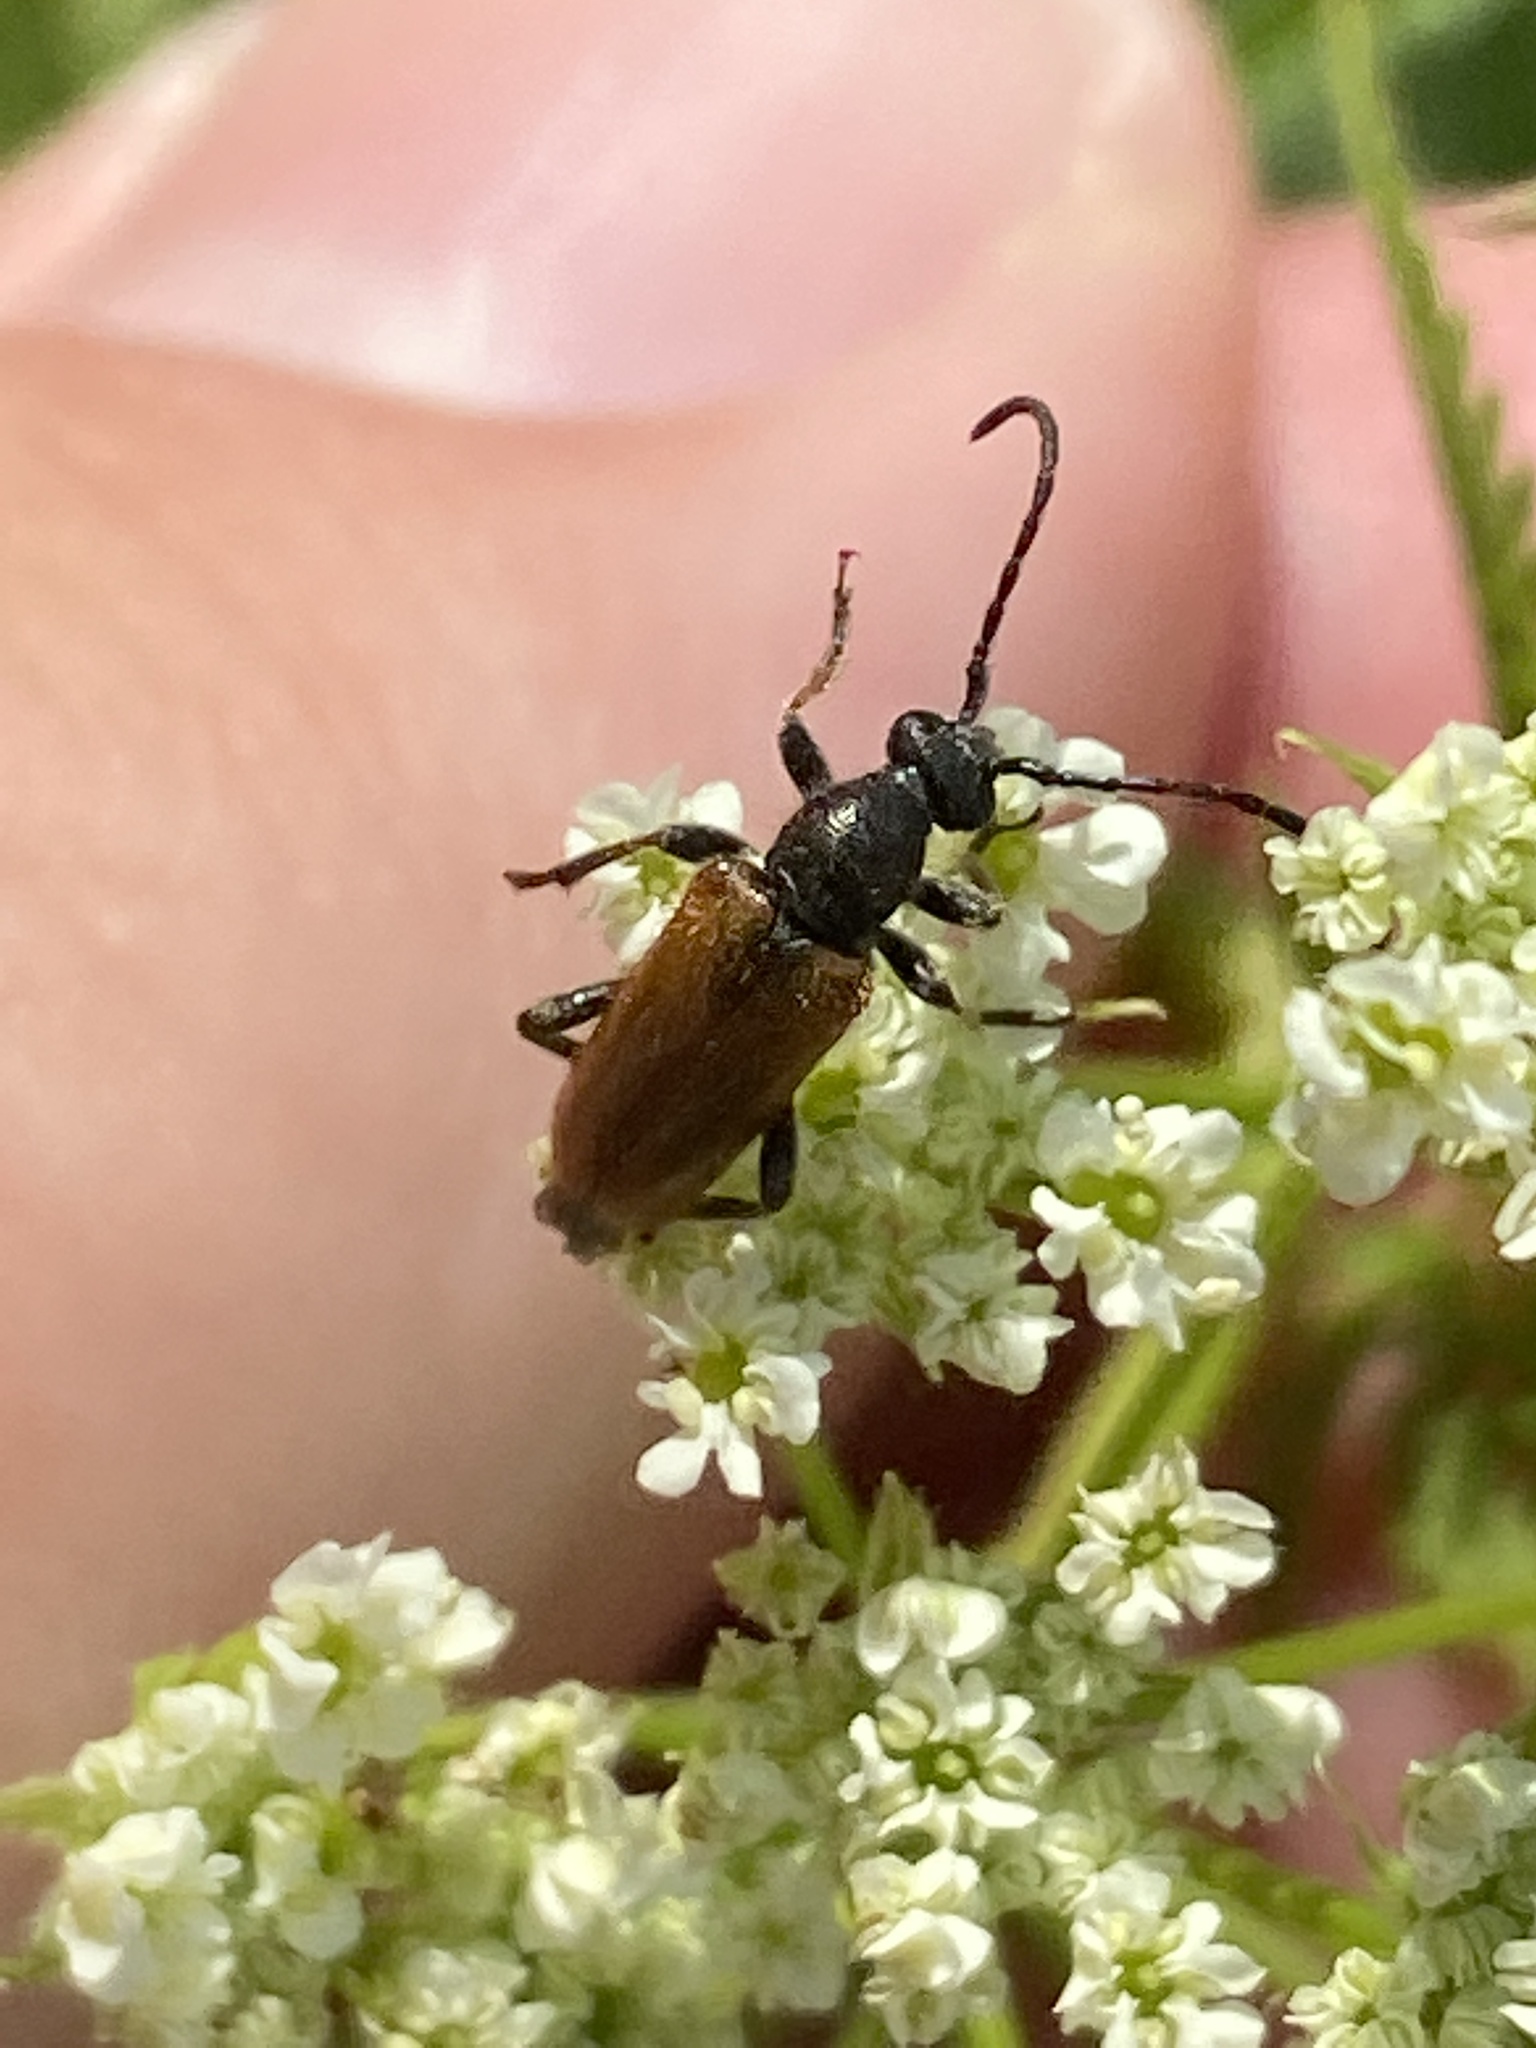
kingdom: Animalia
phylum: Arthropoda
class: Insecta
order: Coleoptera
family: Cerambycidae
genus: Pseudovadonia
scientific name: Pseudovadonia livida
